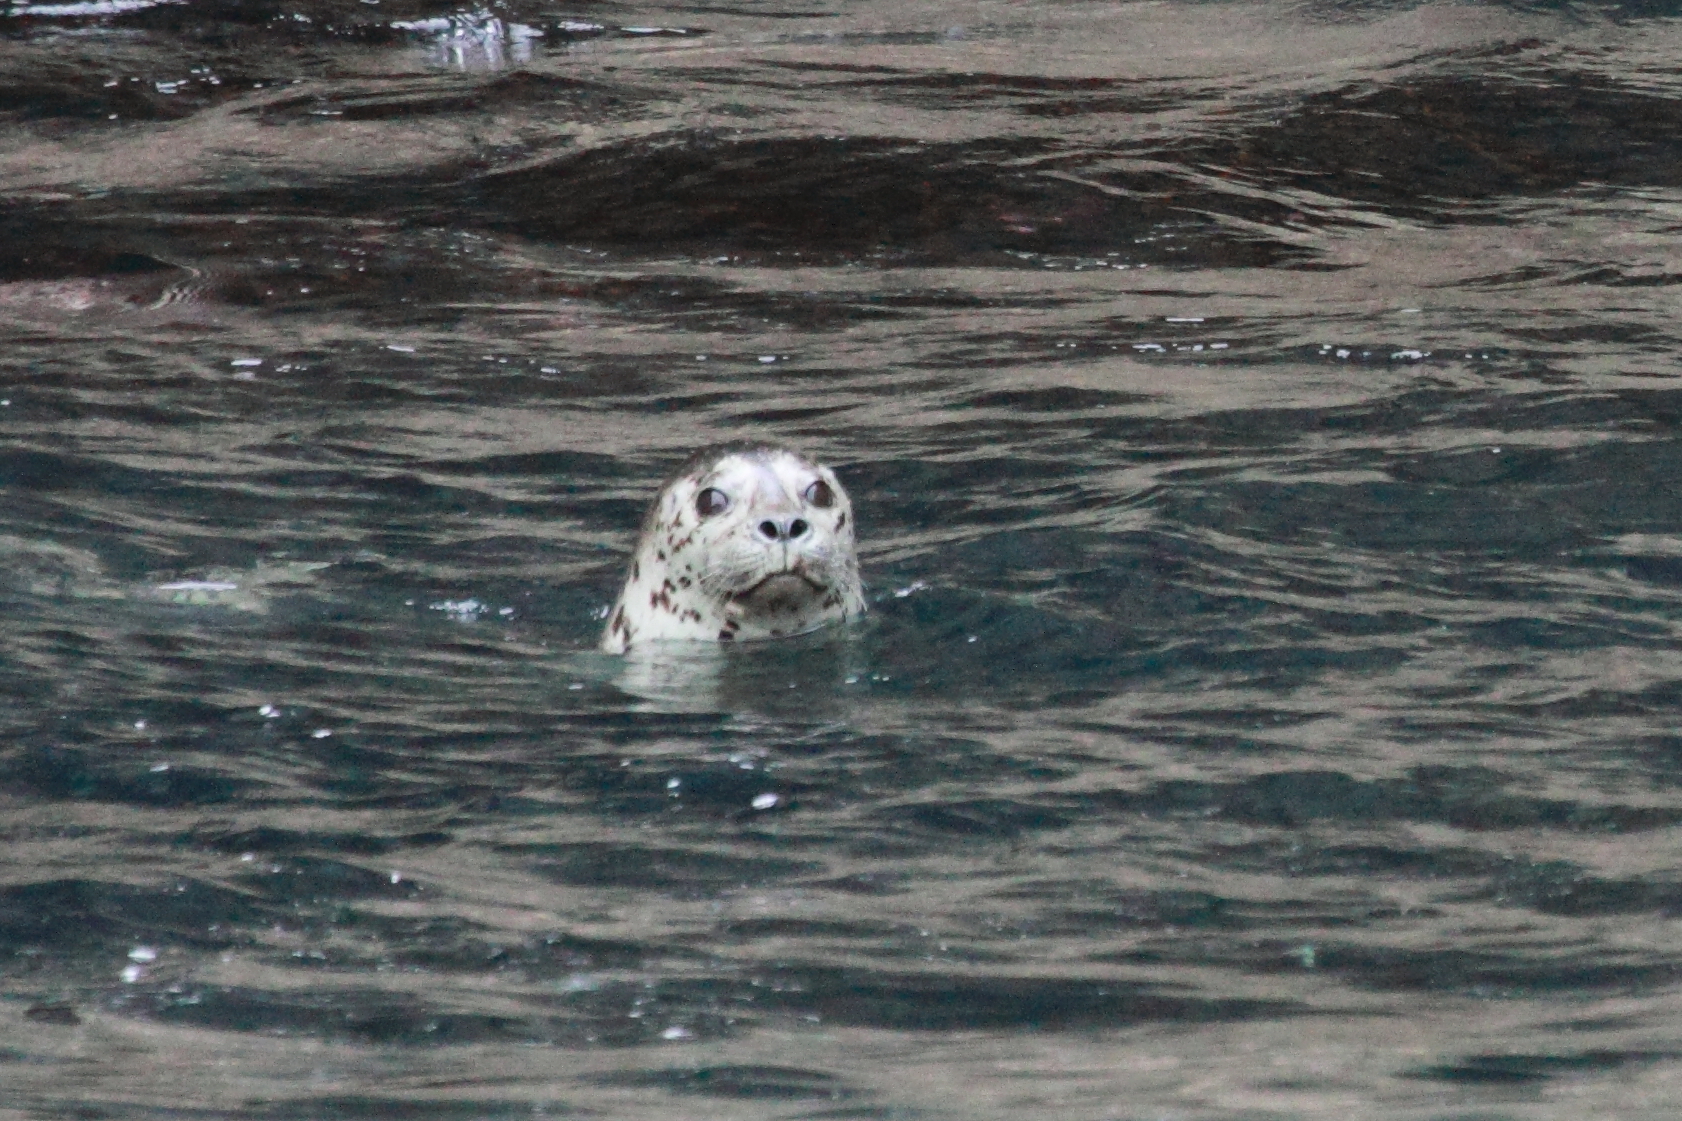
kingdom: Animalia
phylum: Chordata
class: Mammalia
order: Carnivora
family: Phocidae
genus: Phoca
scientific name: Phoca vitulina
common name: Harbor seal
